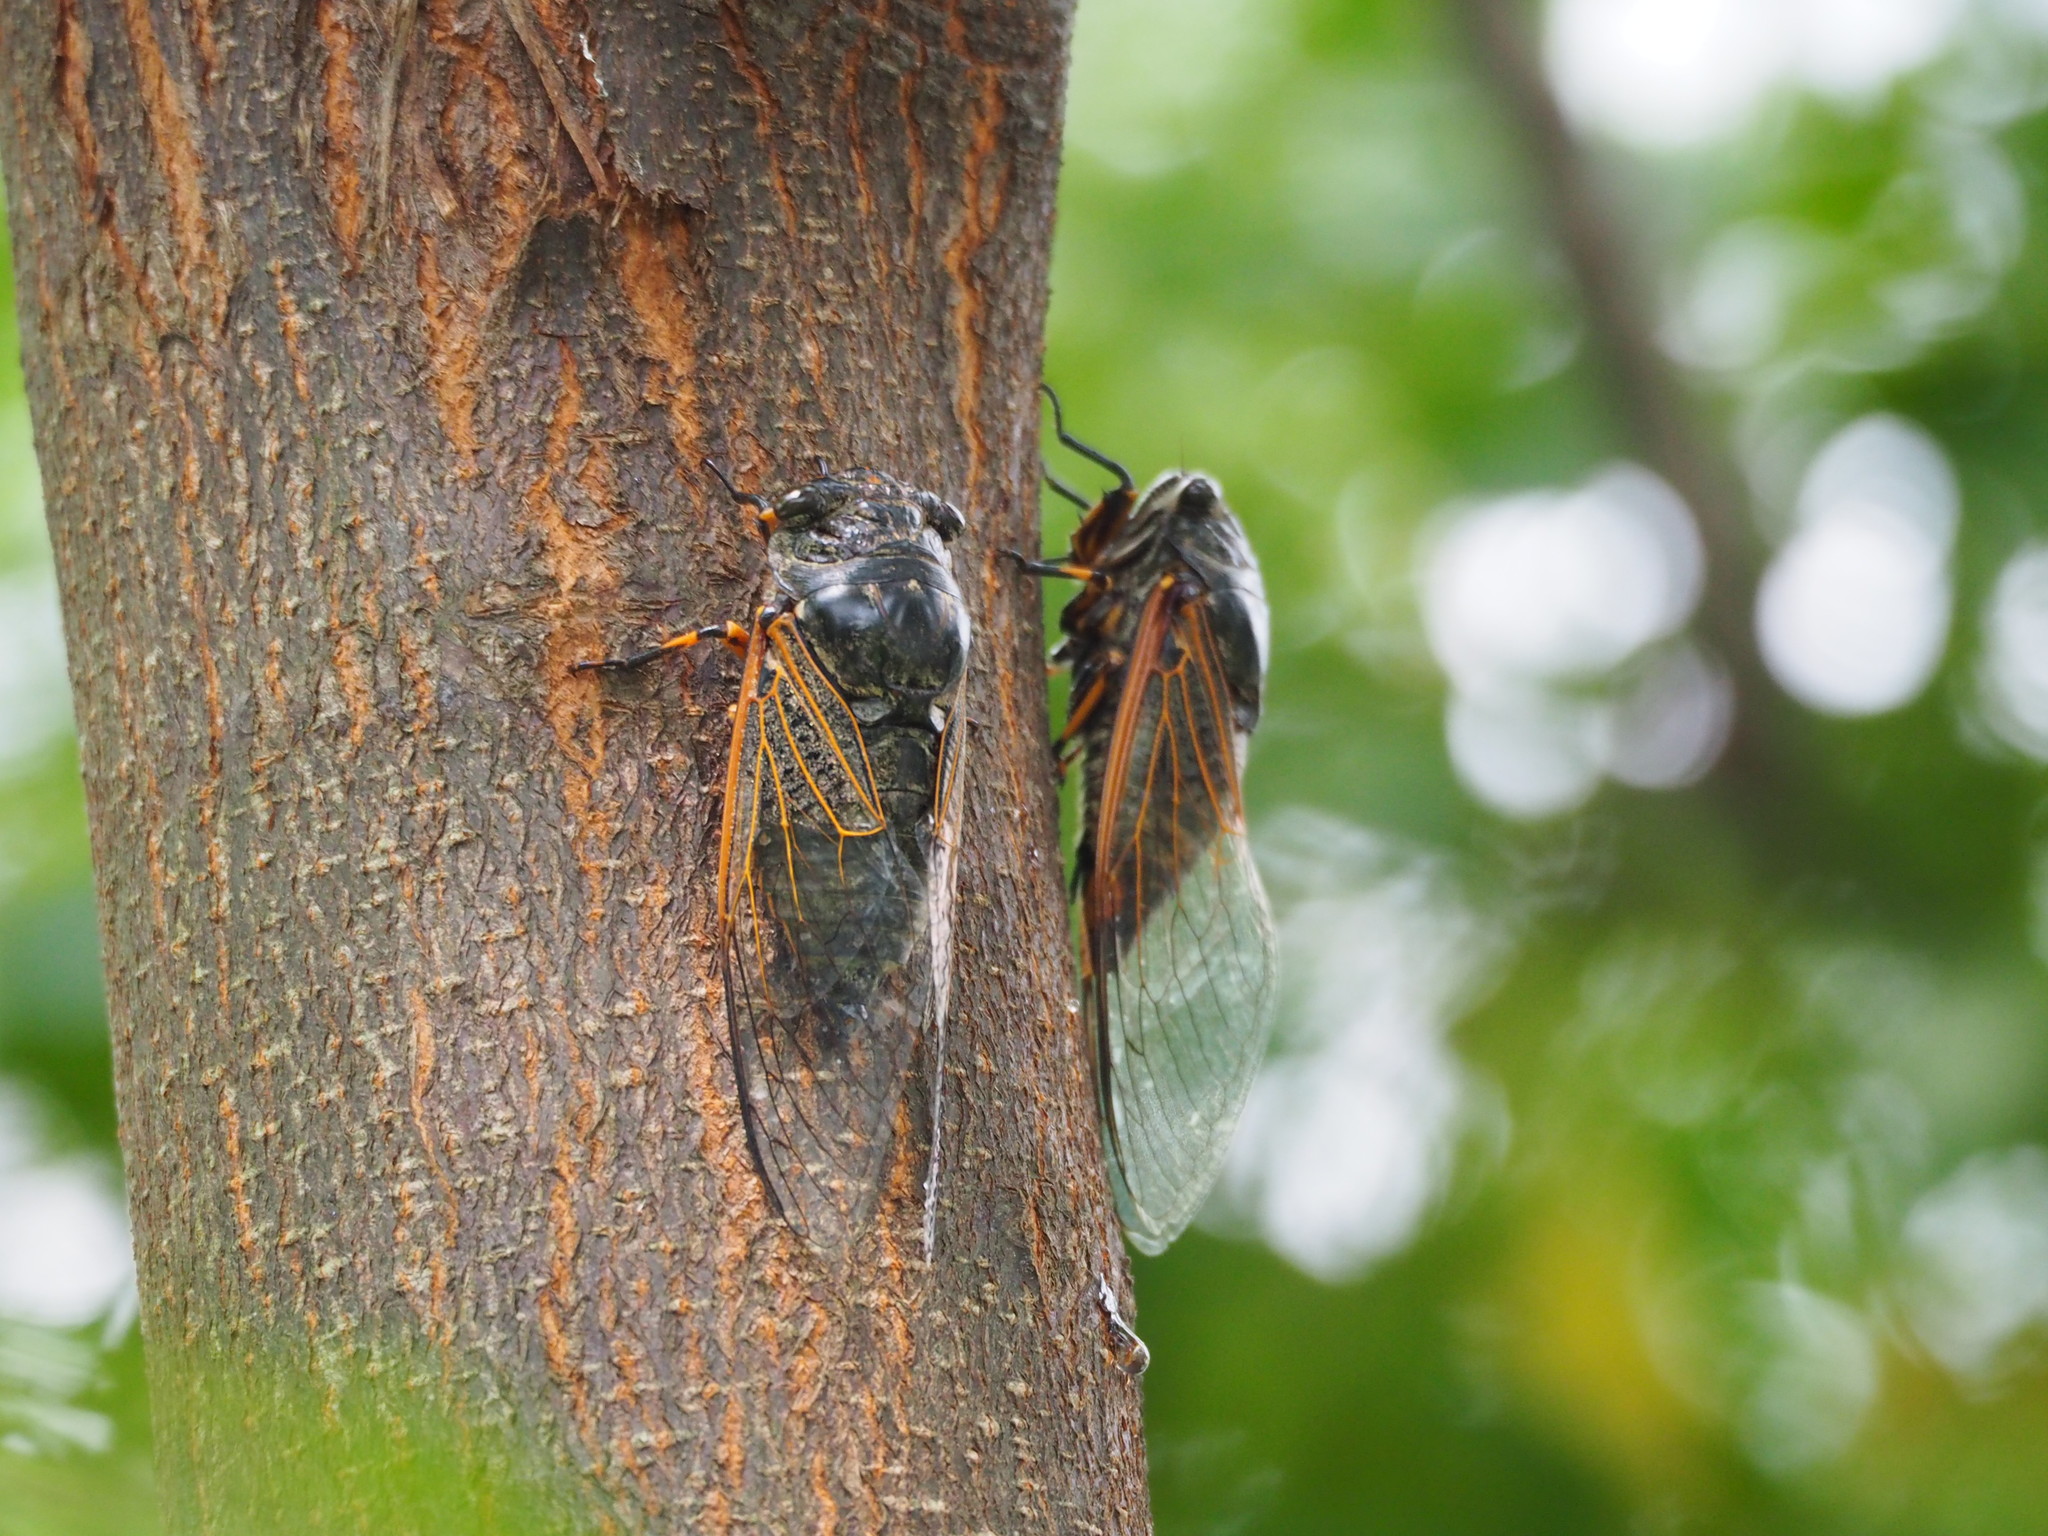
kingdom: Animalia
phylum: Arthropoda
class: Insecta
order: Hemiptera
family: Cicadidae
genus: Cryptotympana
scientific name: Cryptotympana atrata
